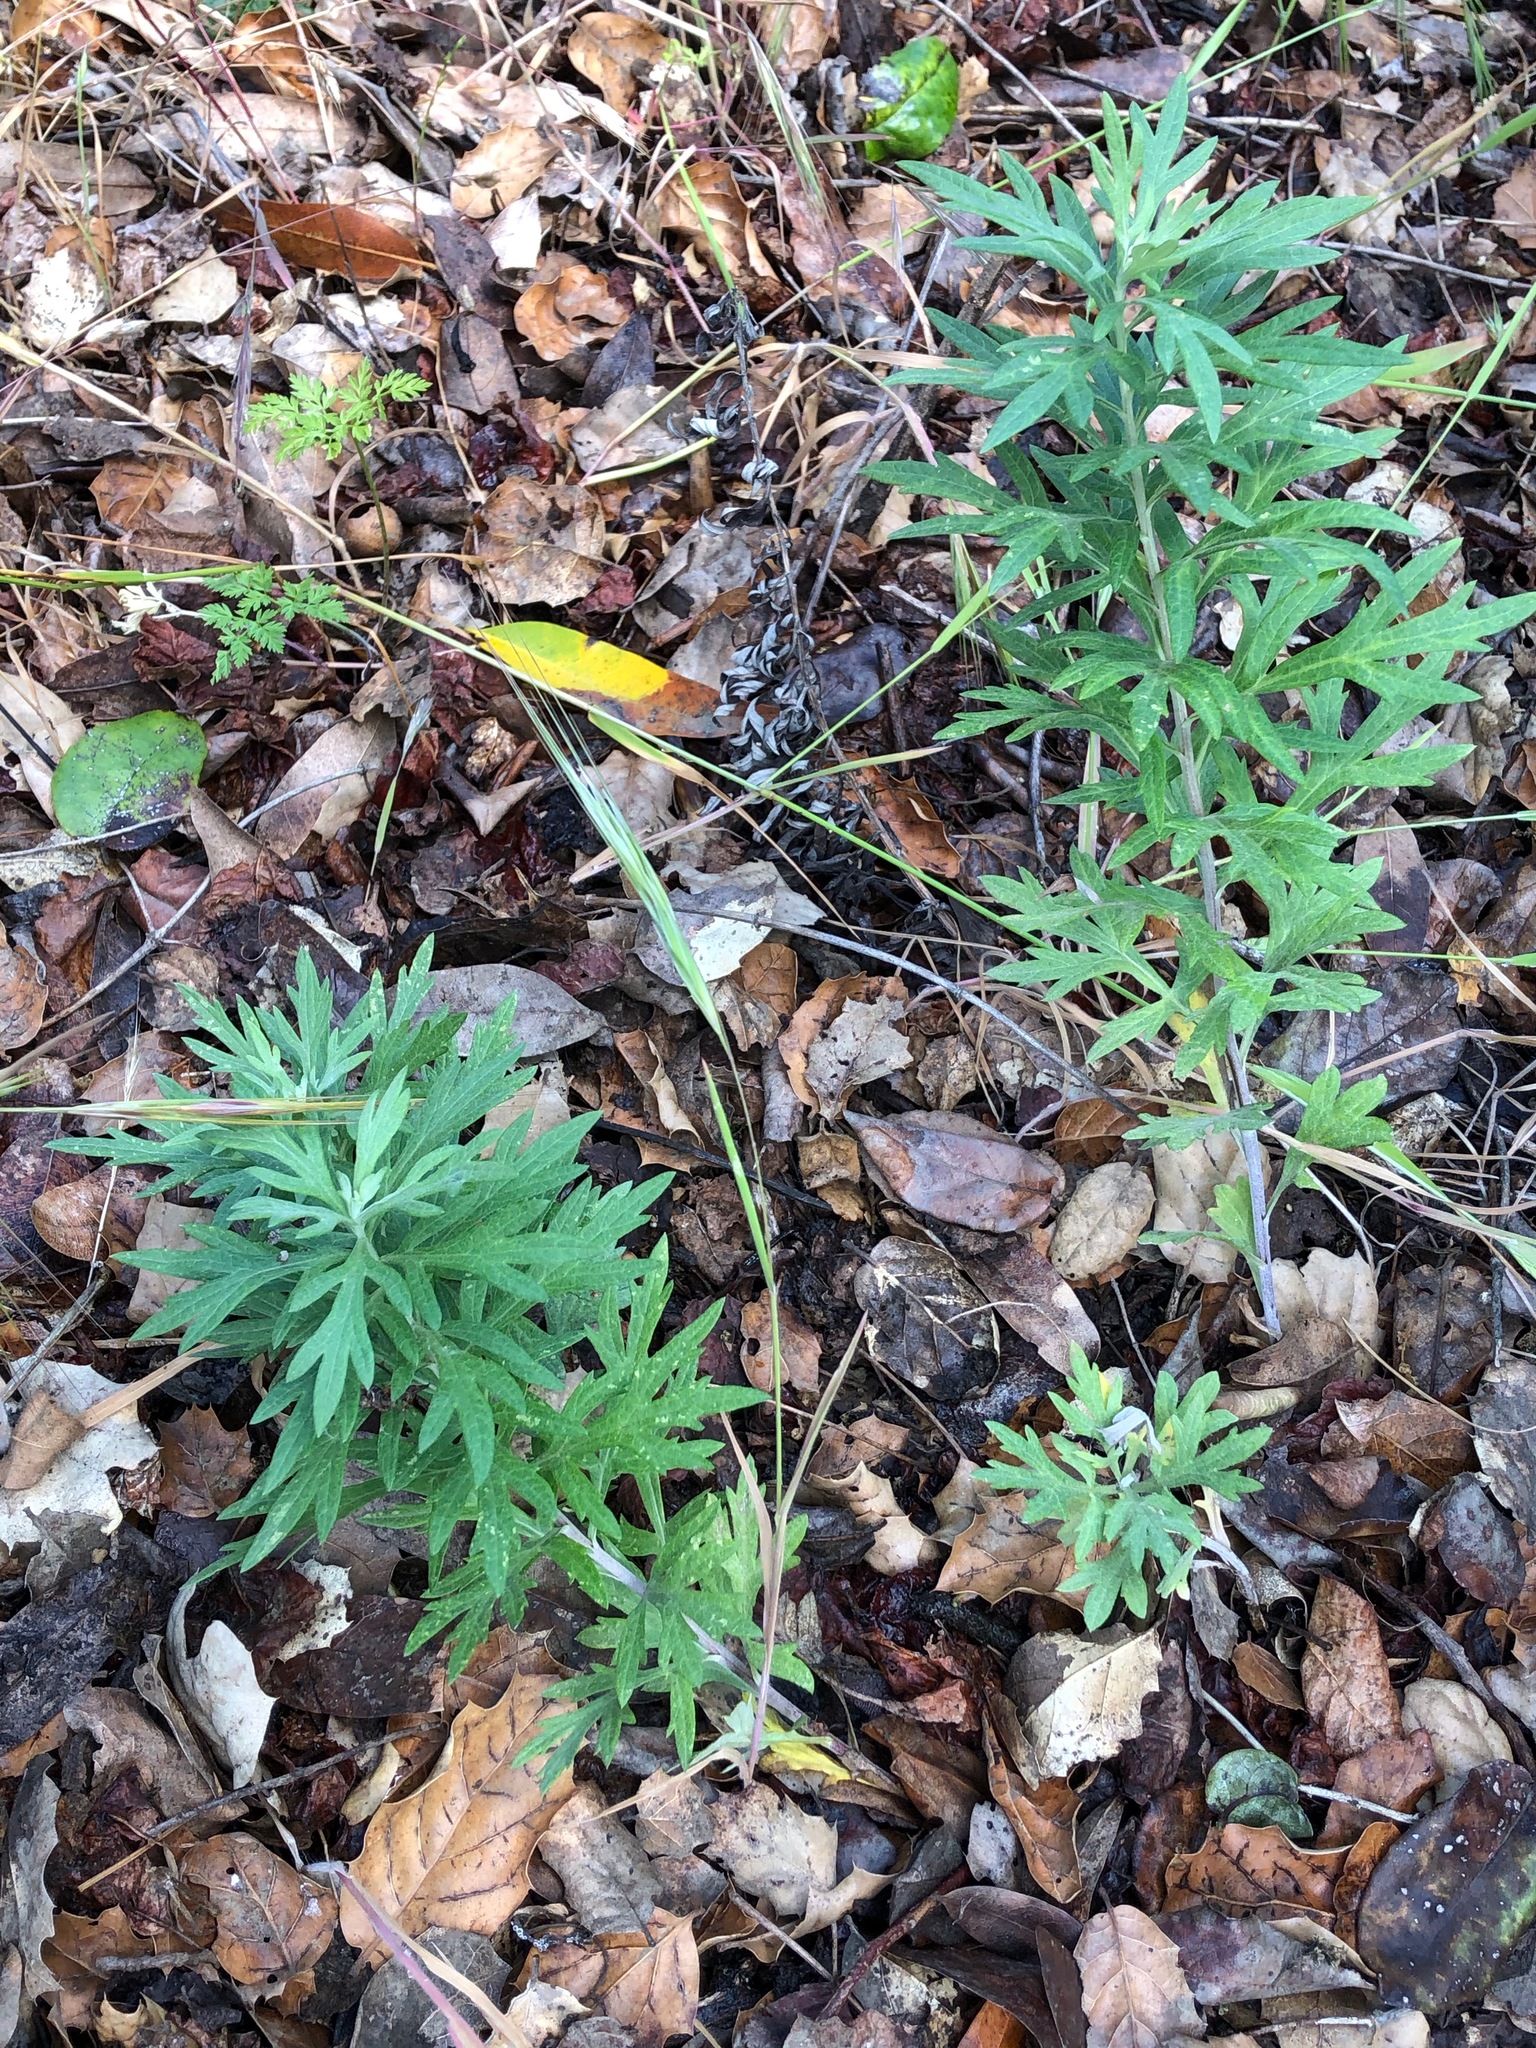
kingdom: Plantae
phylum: Tracheophyta
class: Magnoliopsida
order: Asterales
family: Asteraceae
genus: Artemisia
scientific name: Artemisia douglasiana
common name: Northwest mugwort
